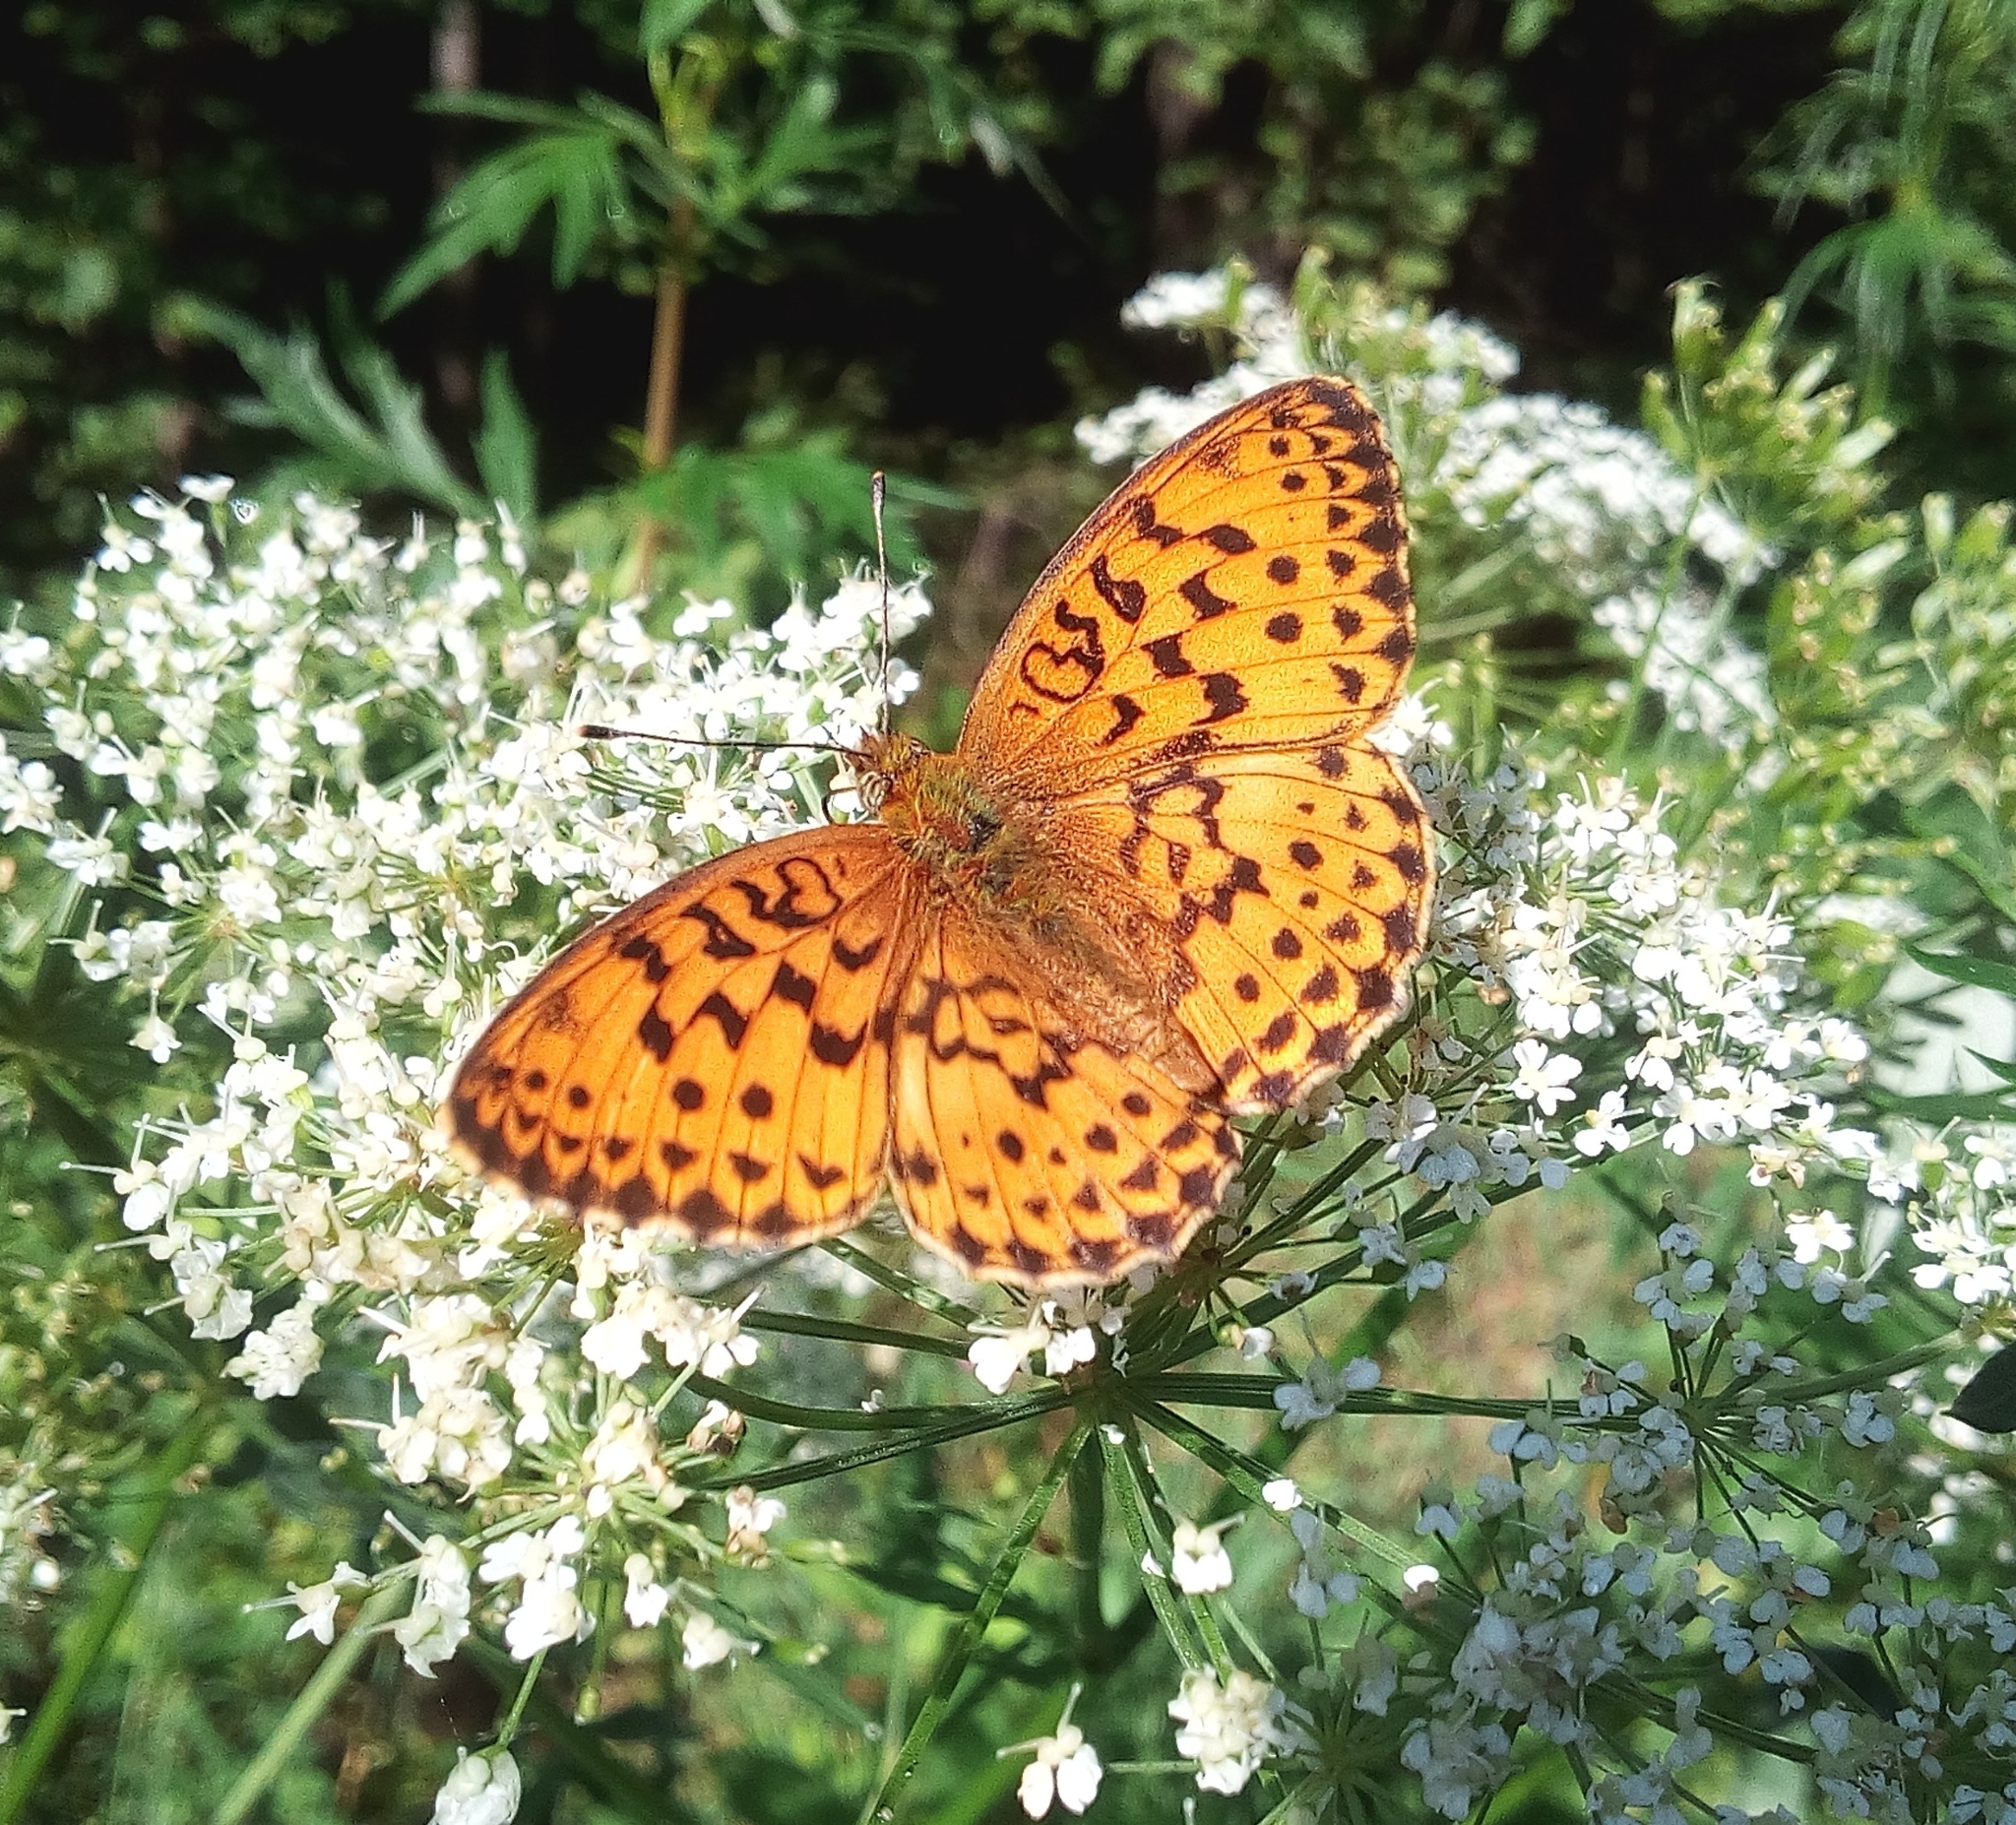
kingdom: Animalia
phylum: Arthropoda
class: Insecta
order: Lepidoptera
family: Nymphalidae
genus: Brenthis
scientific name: Brenthis daphne
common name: Marbled fritillary
